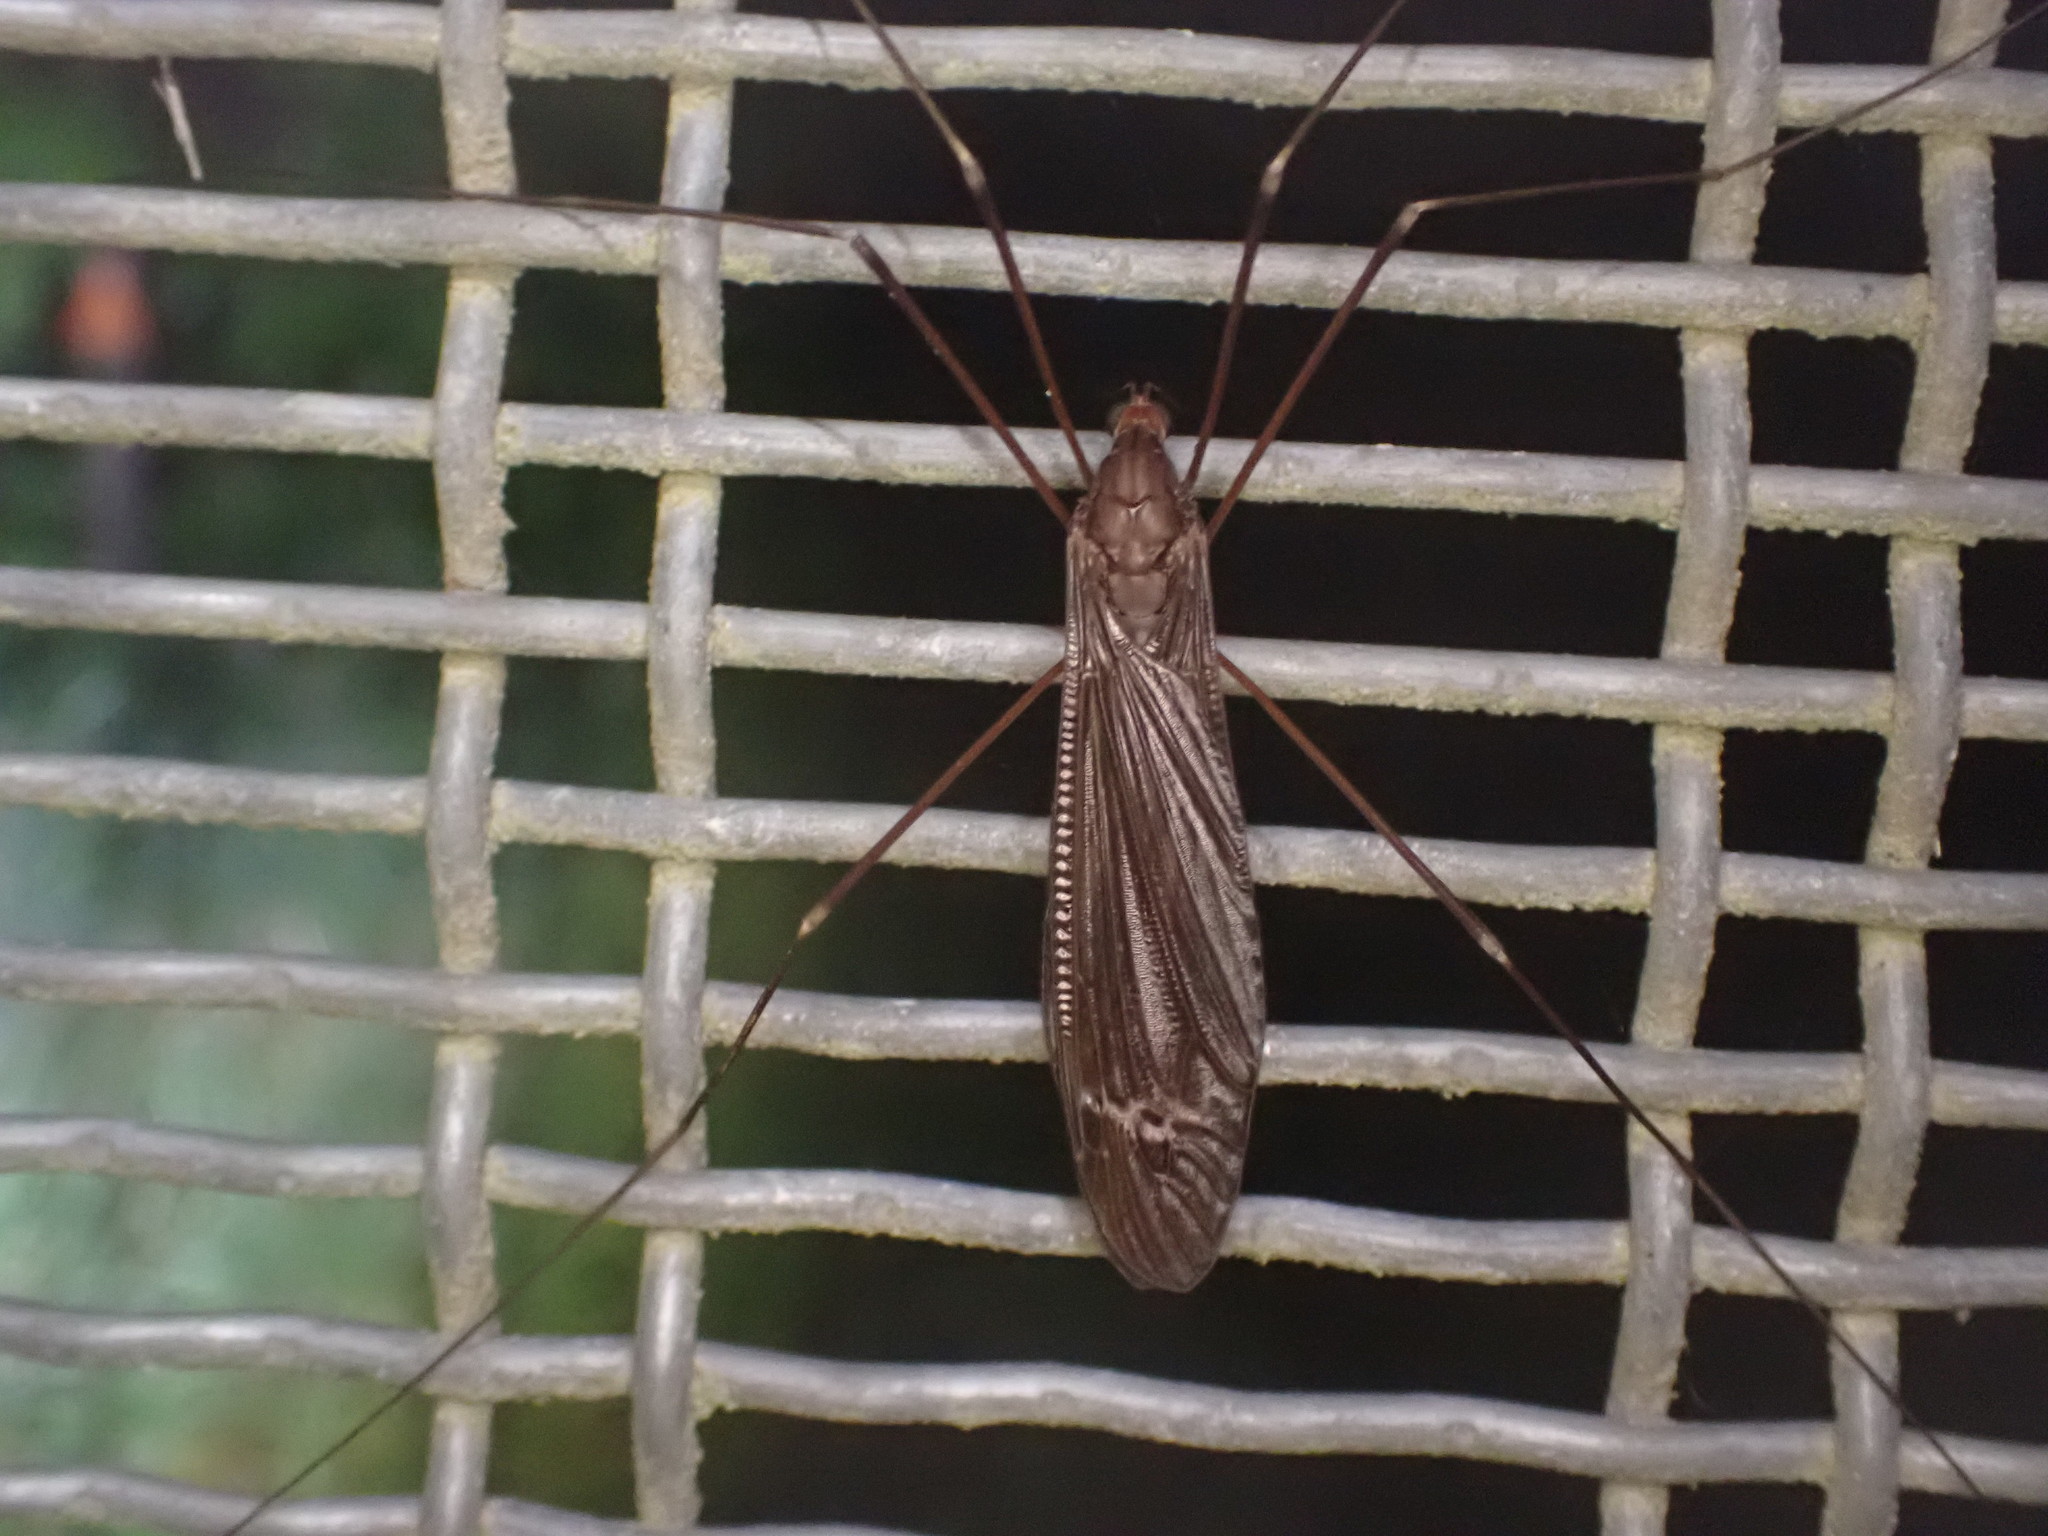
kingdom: Animalia
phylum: Arthropoda
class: Insecta
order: Diptera
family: Tipulidae
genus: Austrotipula
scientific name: Austrotipula hudsoni
